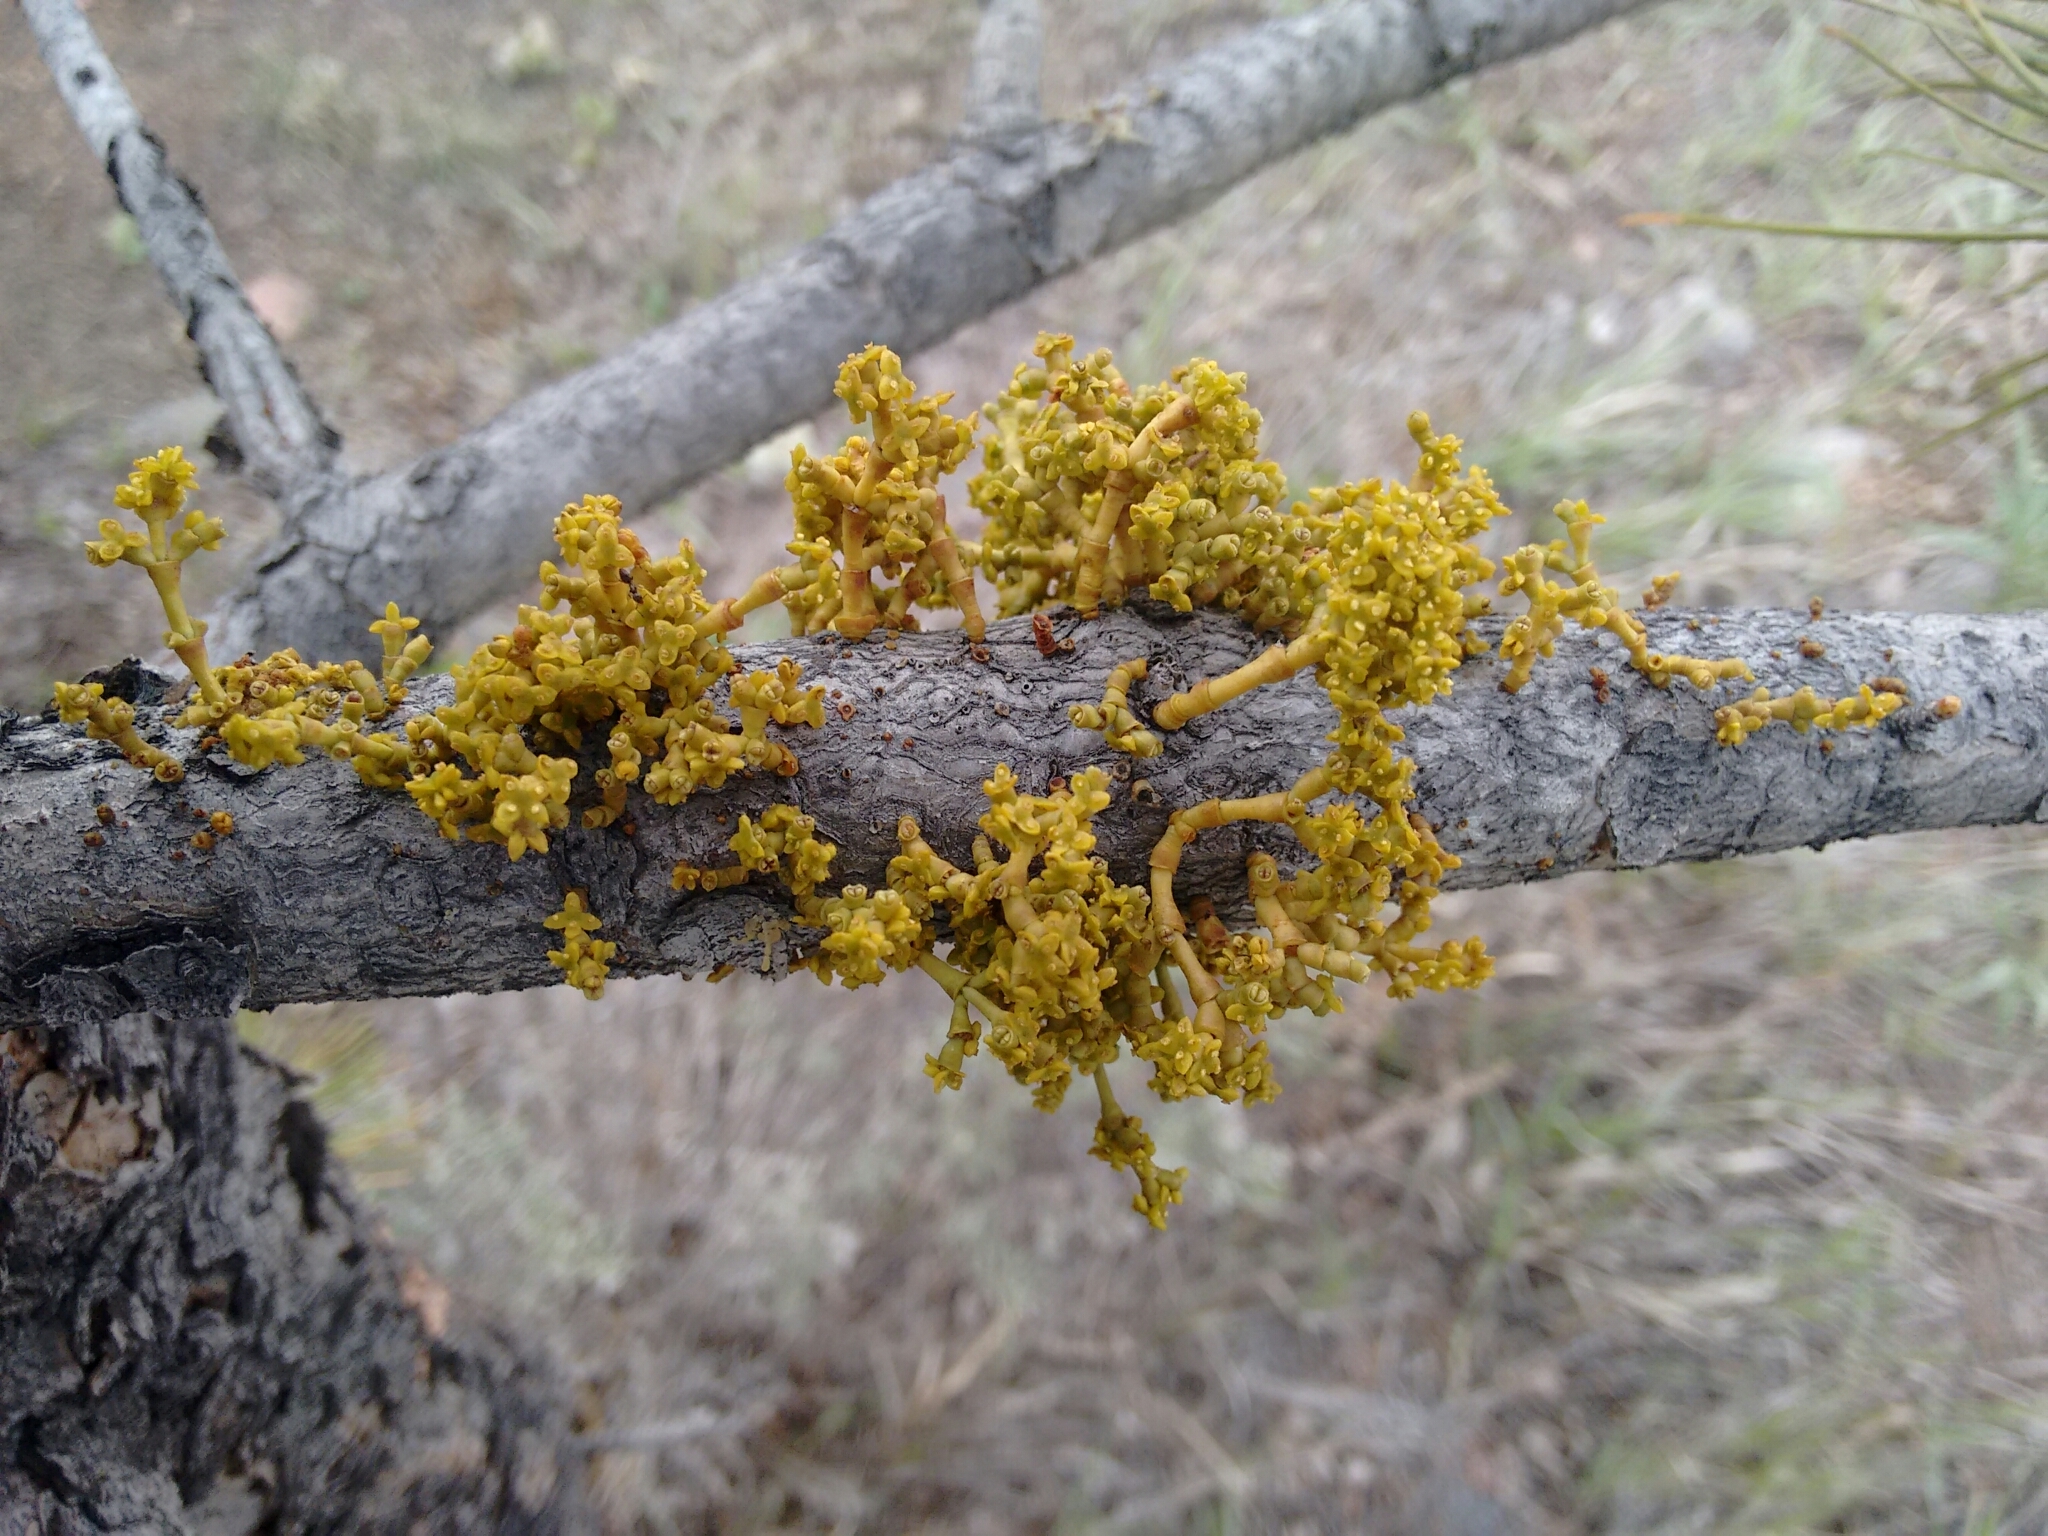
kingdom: Plantae
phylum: Tracheophyta
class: Magnoliopsida
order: Santalales
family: Viscaceae
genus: Arceuthobium
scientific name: Arceuthobium americanum
